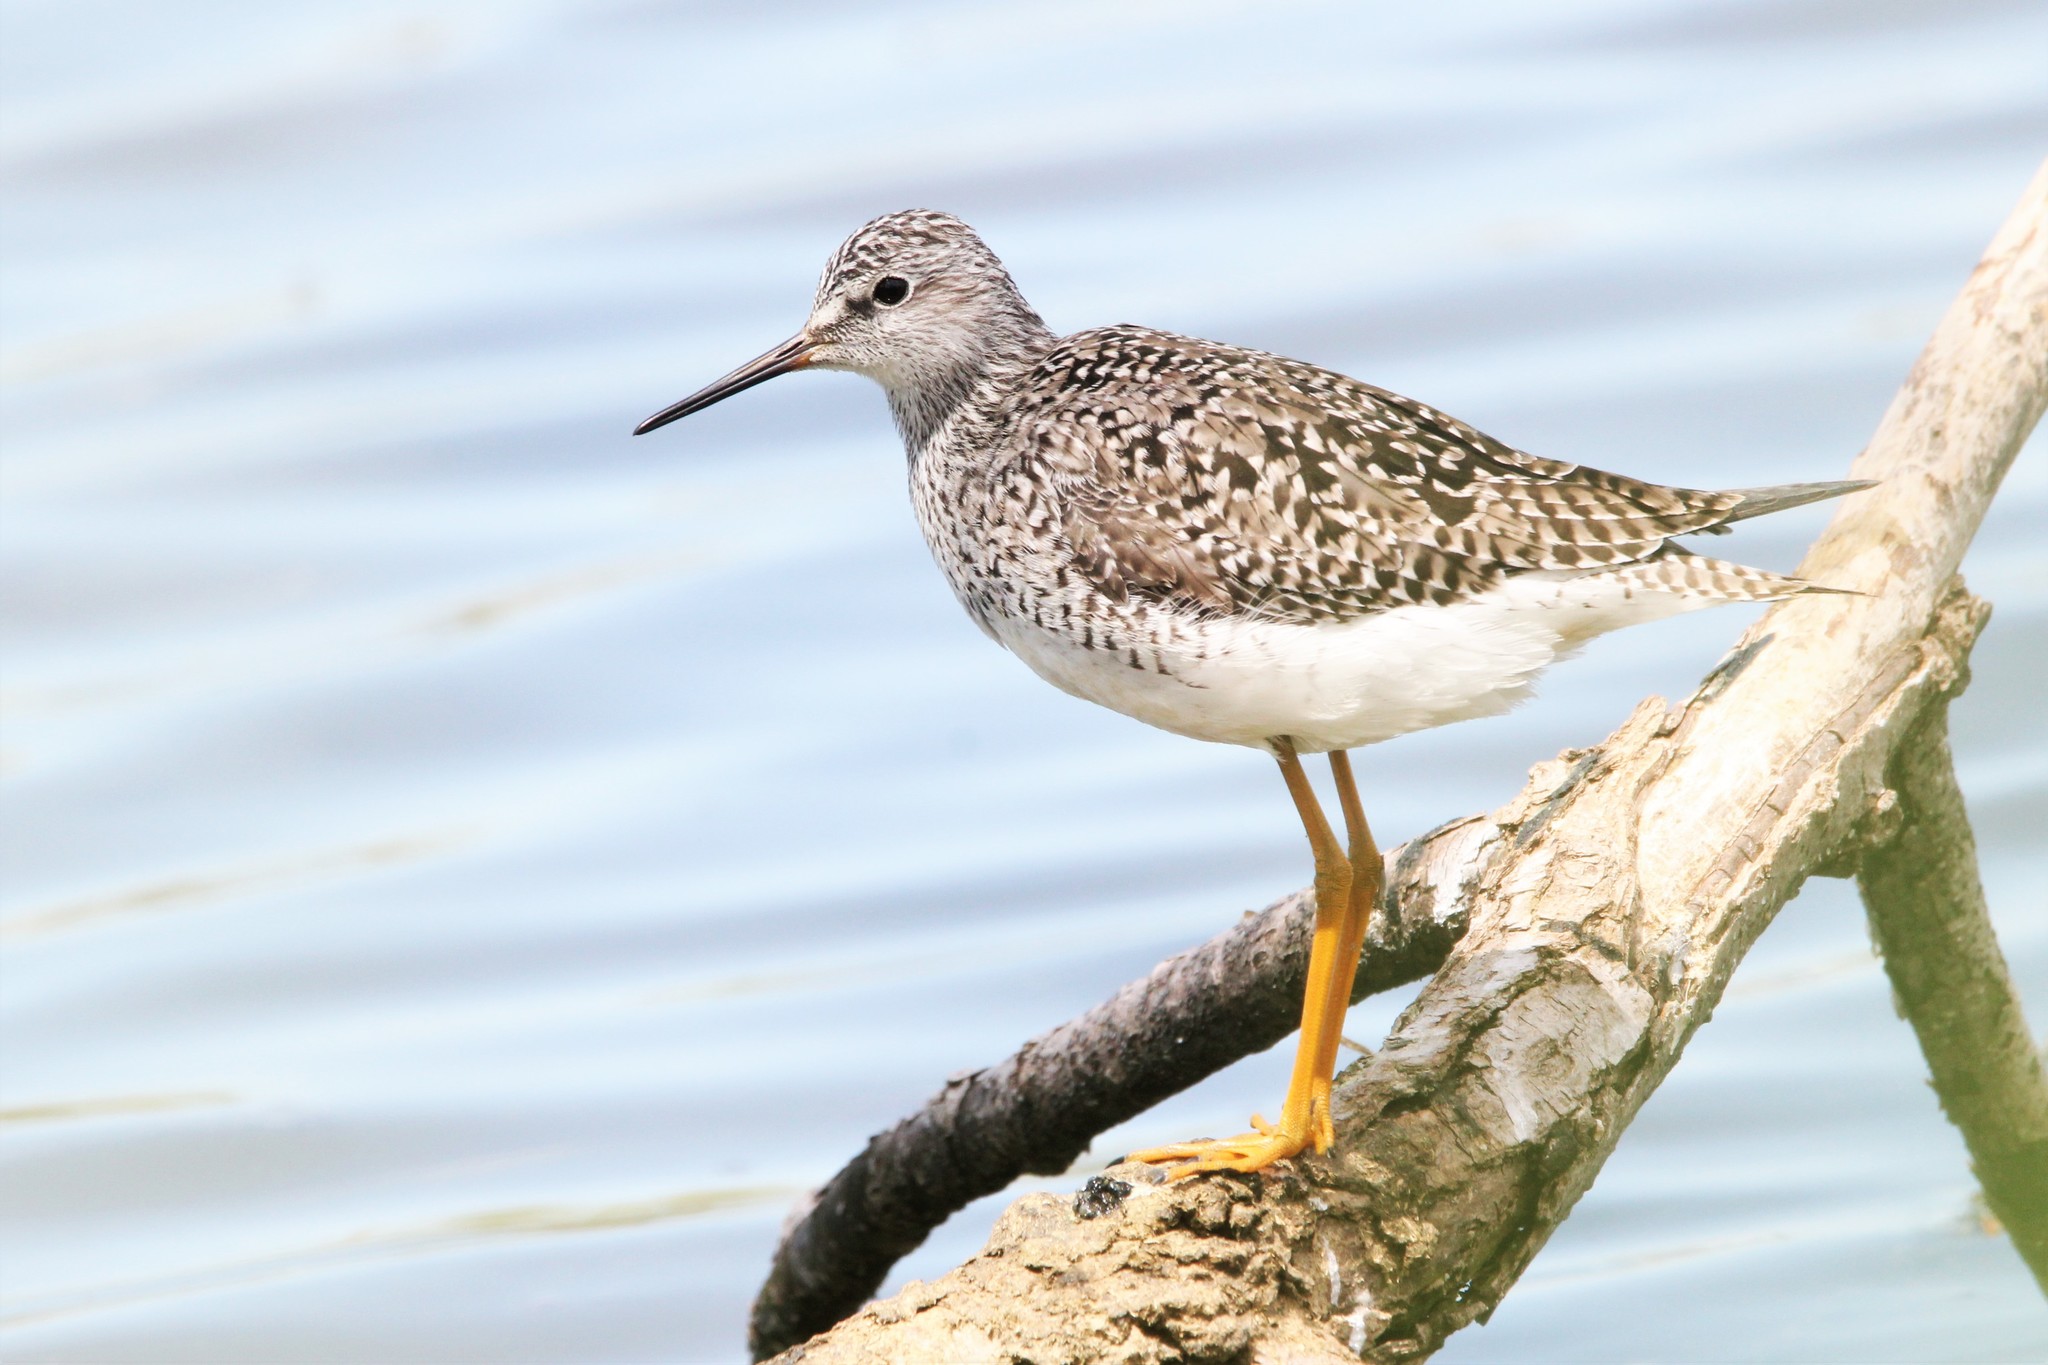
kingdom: Animalia
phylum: Chordata
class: Aves
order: Charadriiformes
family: Scolopacidae
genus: Tringa
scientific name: Tringa flavipes
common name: Lesser yellowlegs
